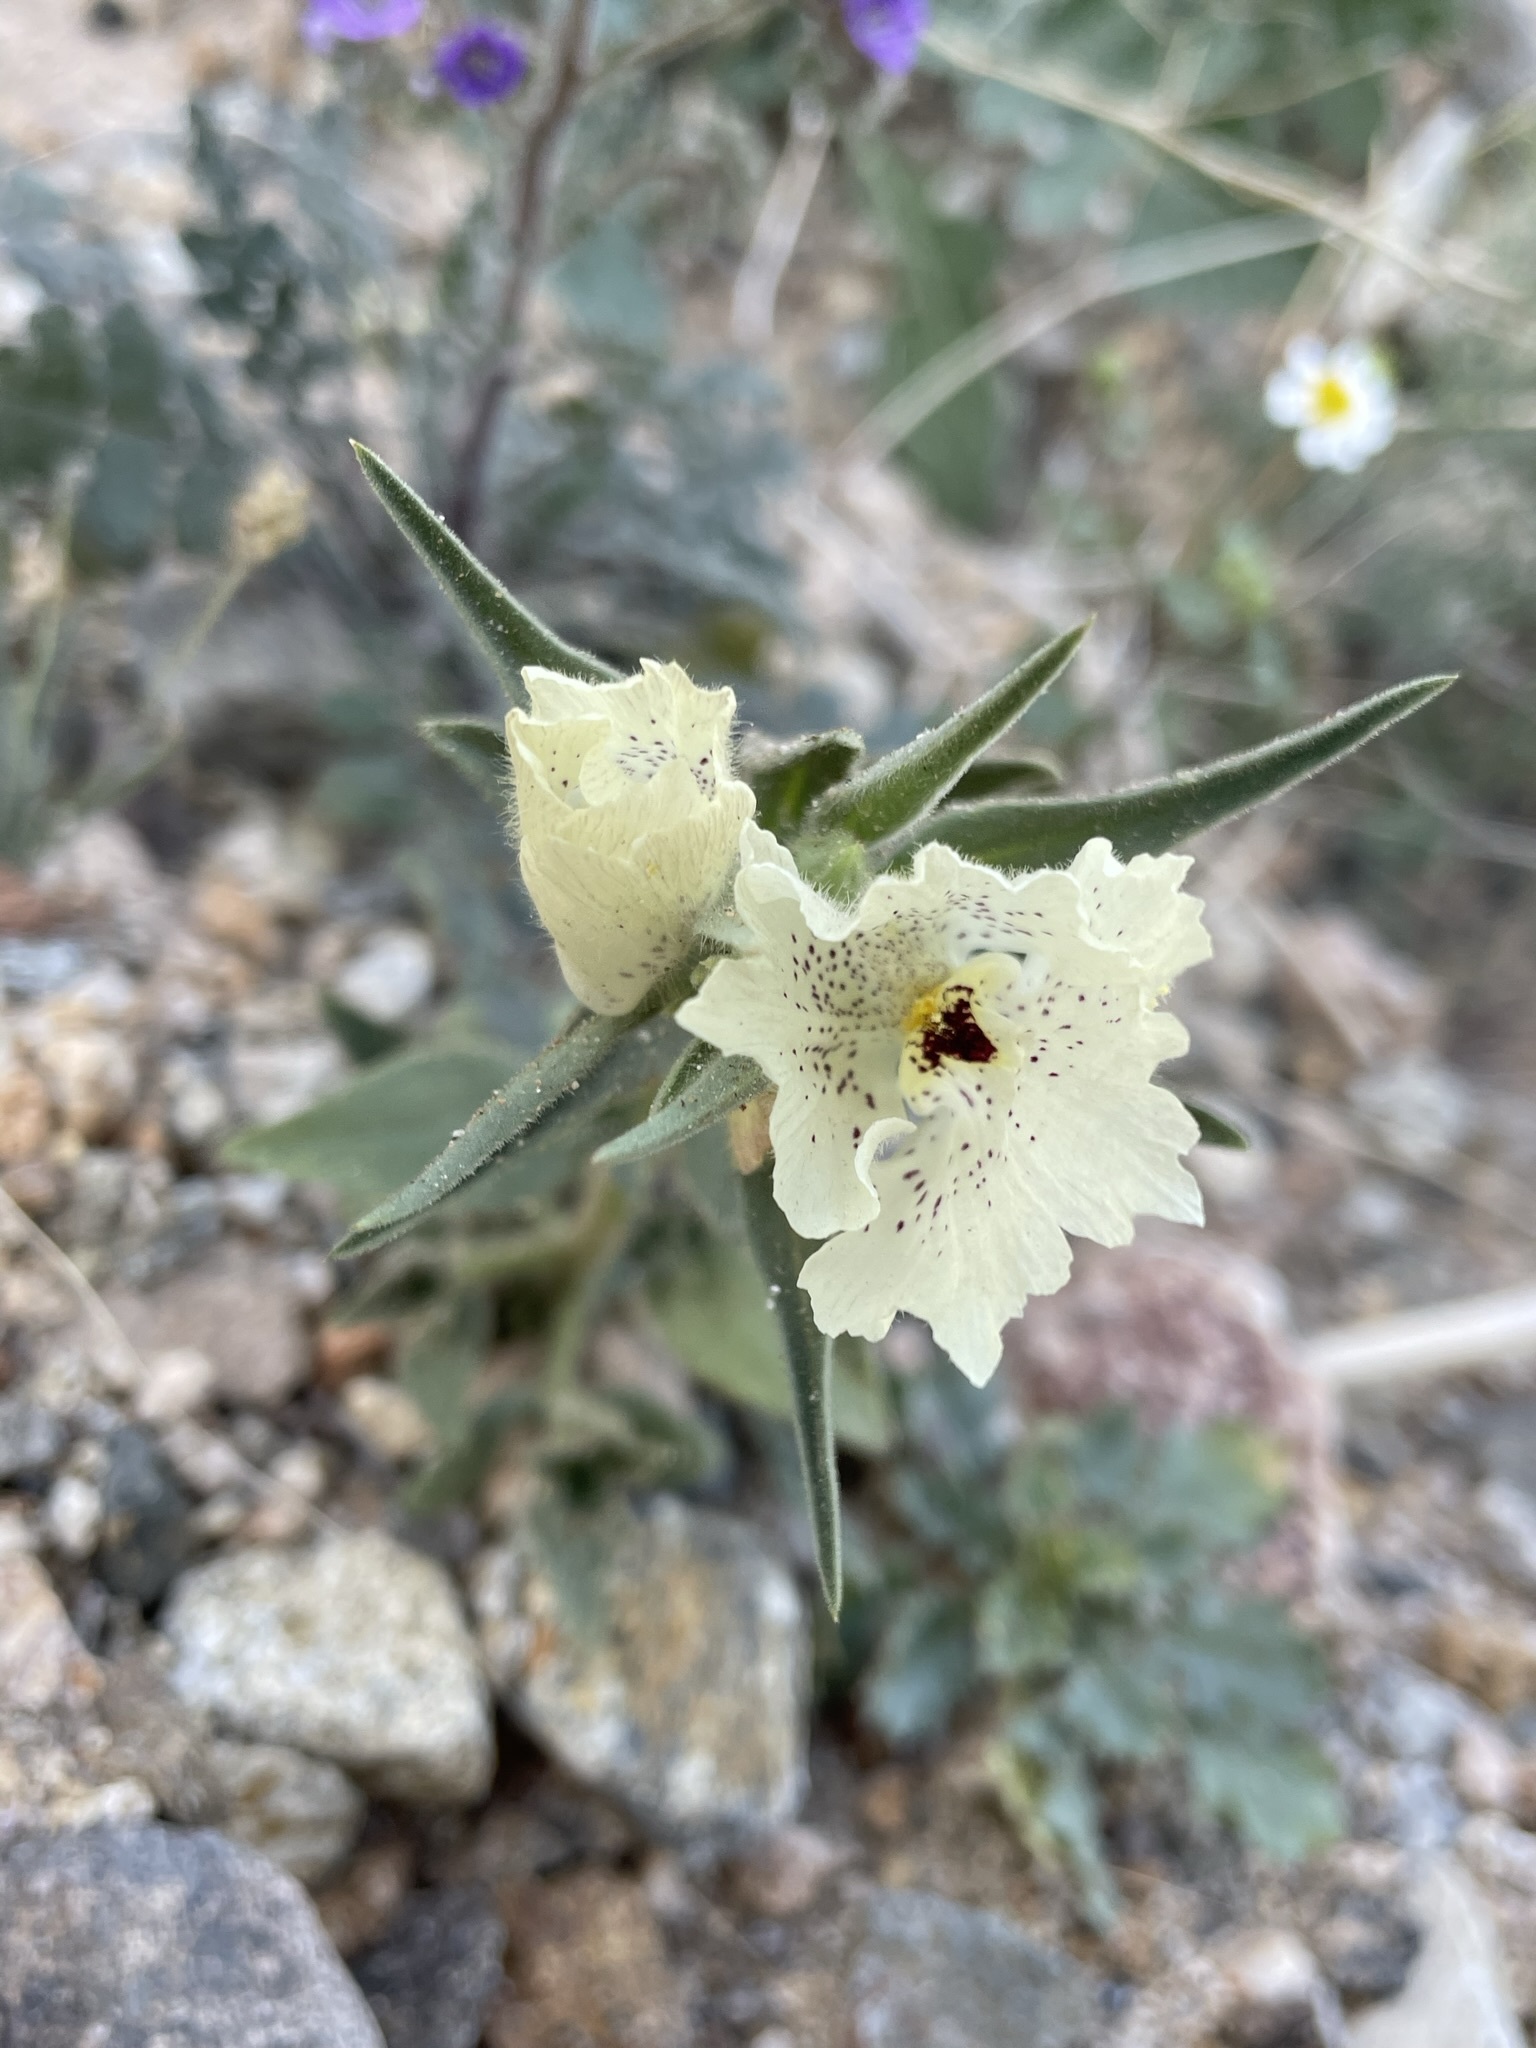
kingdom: Plantae
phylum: Tracheophyta
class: Magnoliopsida
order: Lamiales
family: Plantaginaceae
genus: Mohavea
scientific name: Mohavea confertiflora
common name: Ghost flower
